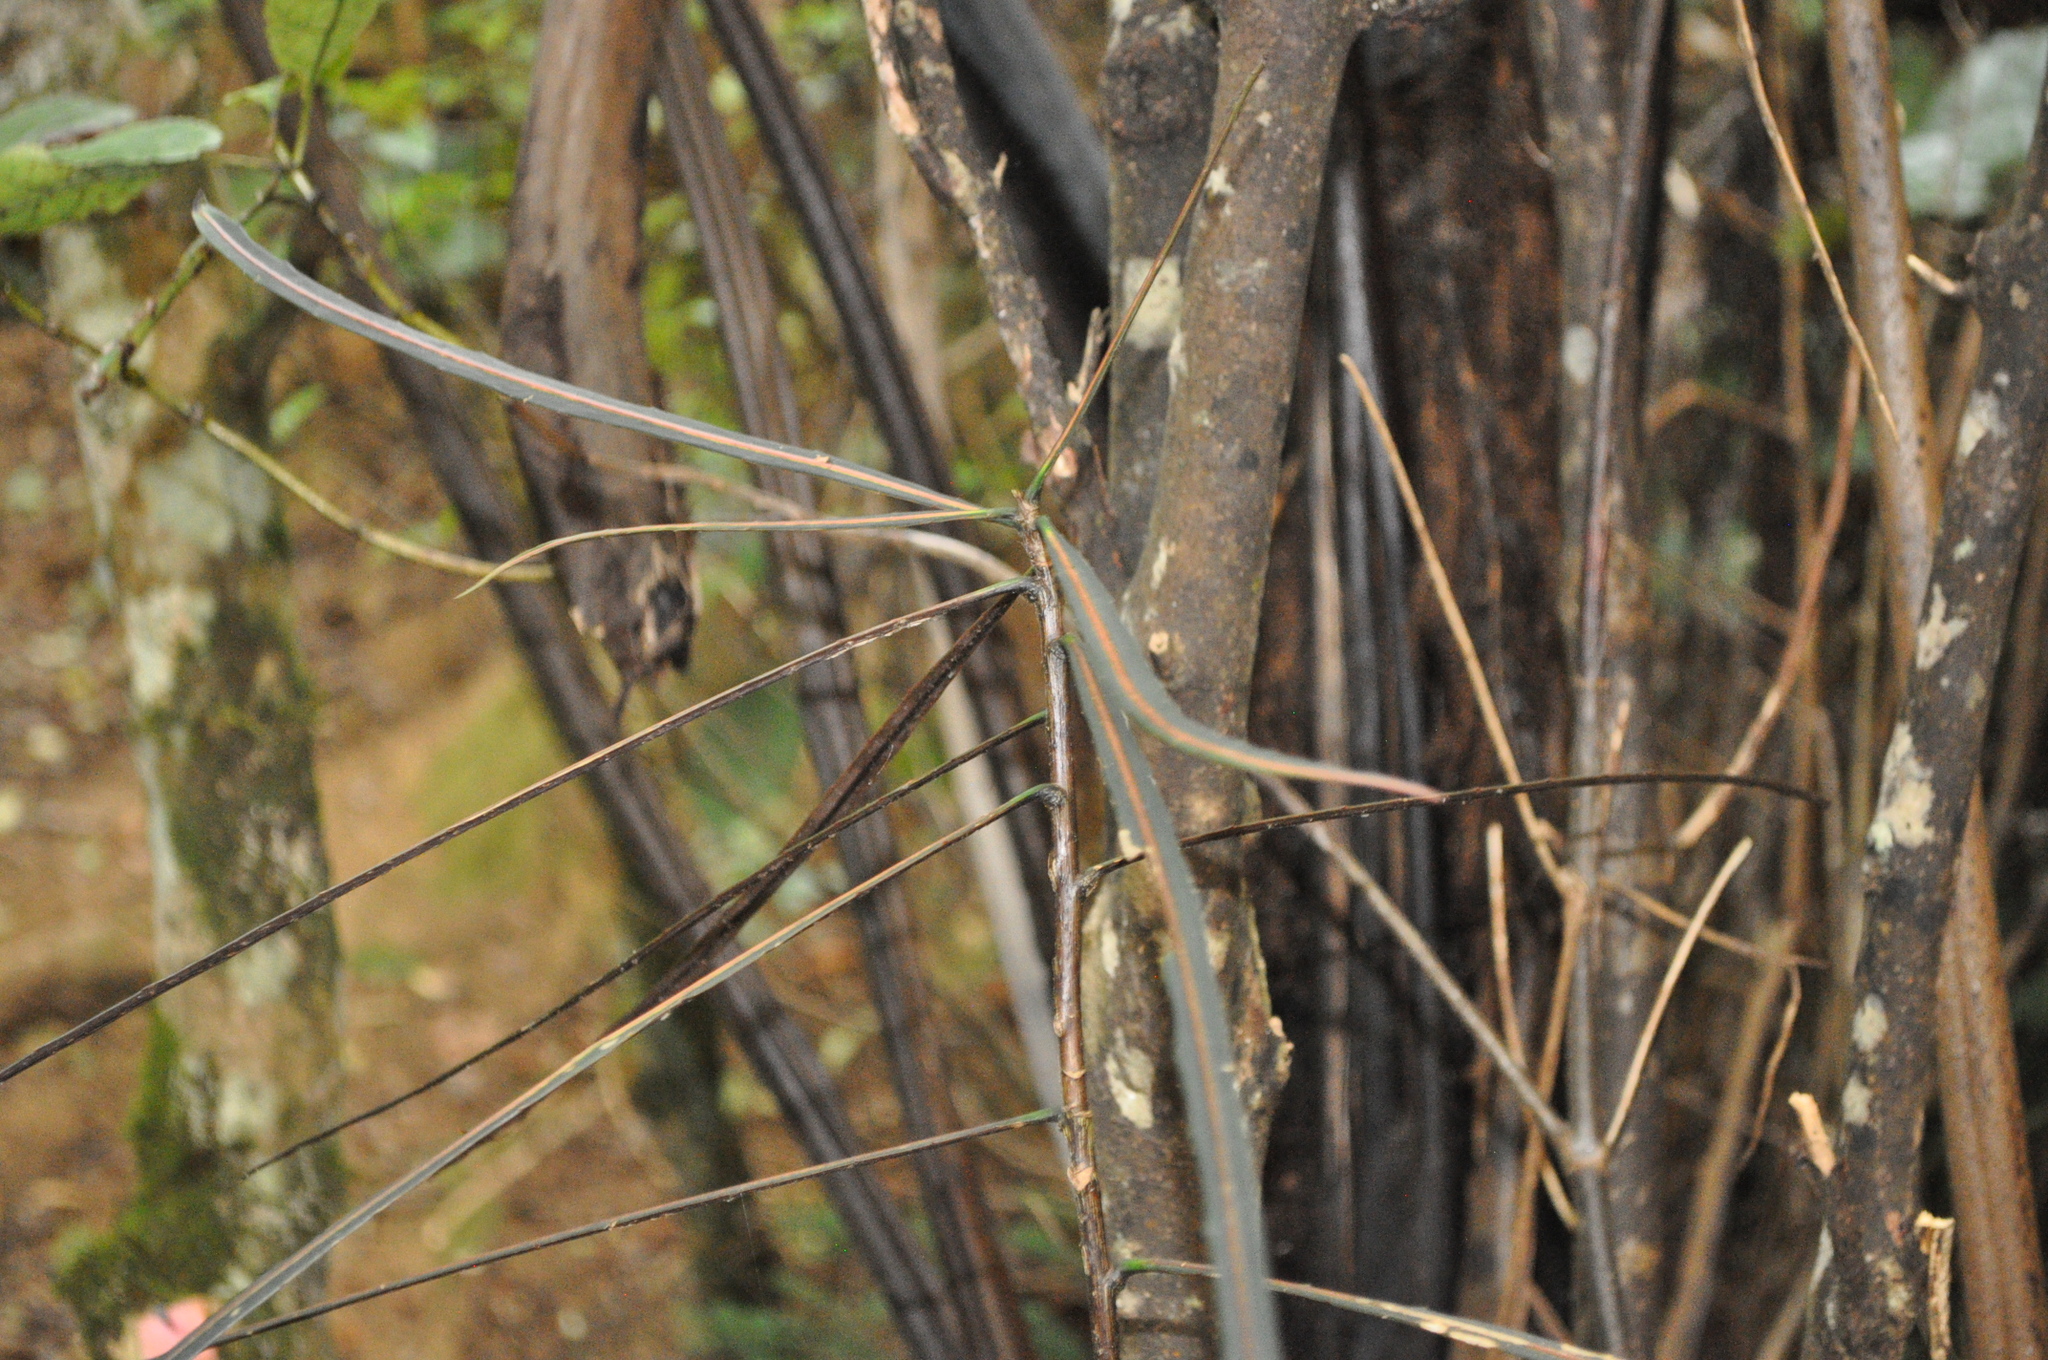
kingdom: Plantae
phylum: Tracheophyta
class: Magnoliopsida
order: Apiales
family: Araliaceae
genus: Pseudopanax
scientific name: Pseudopanax crassifolius
